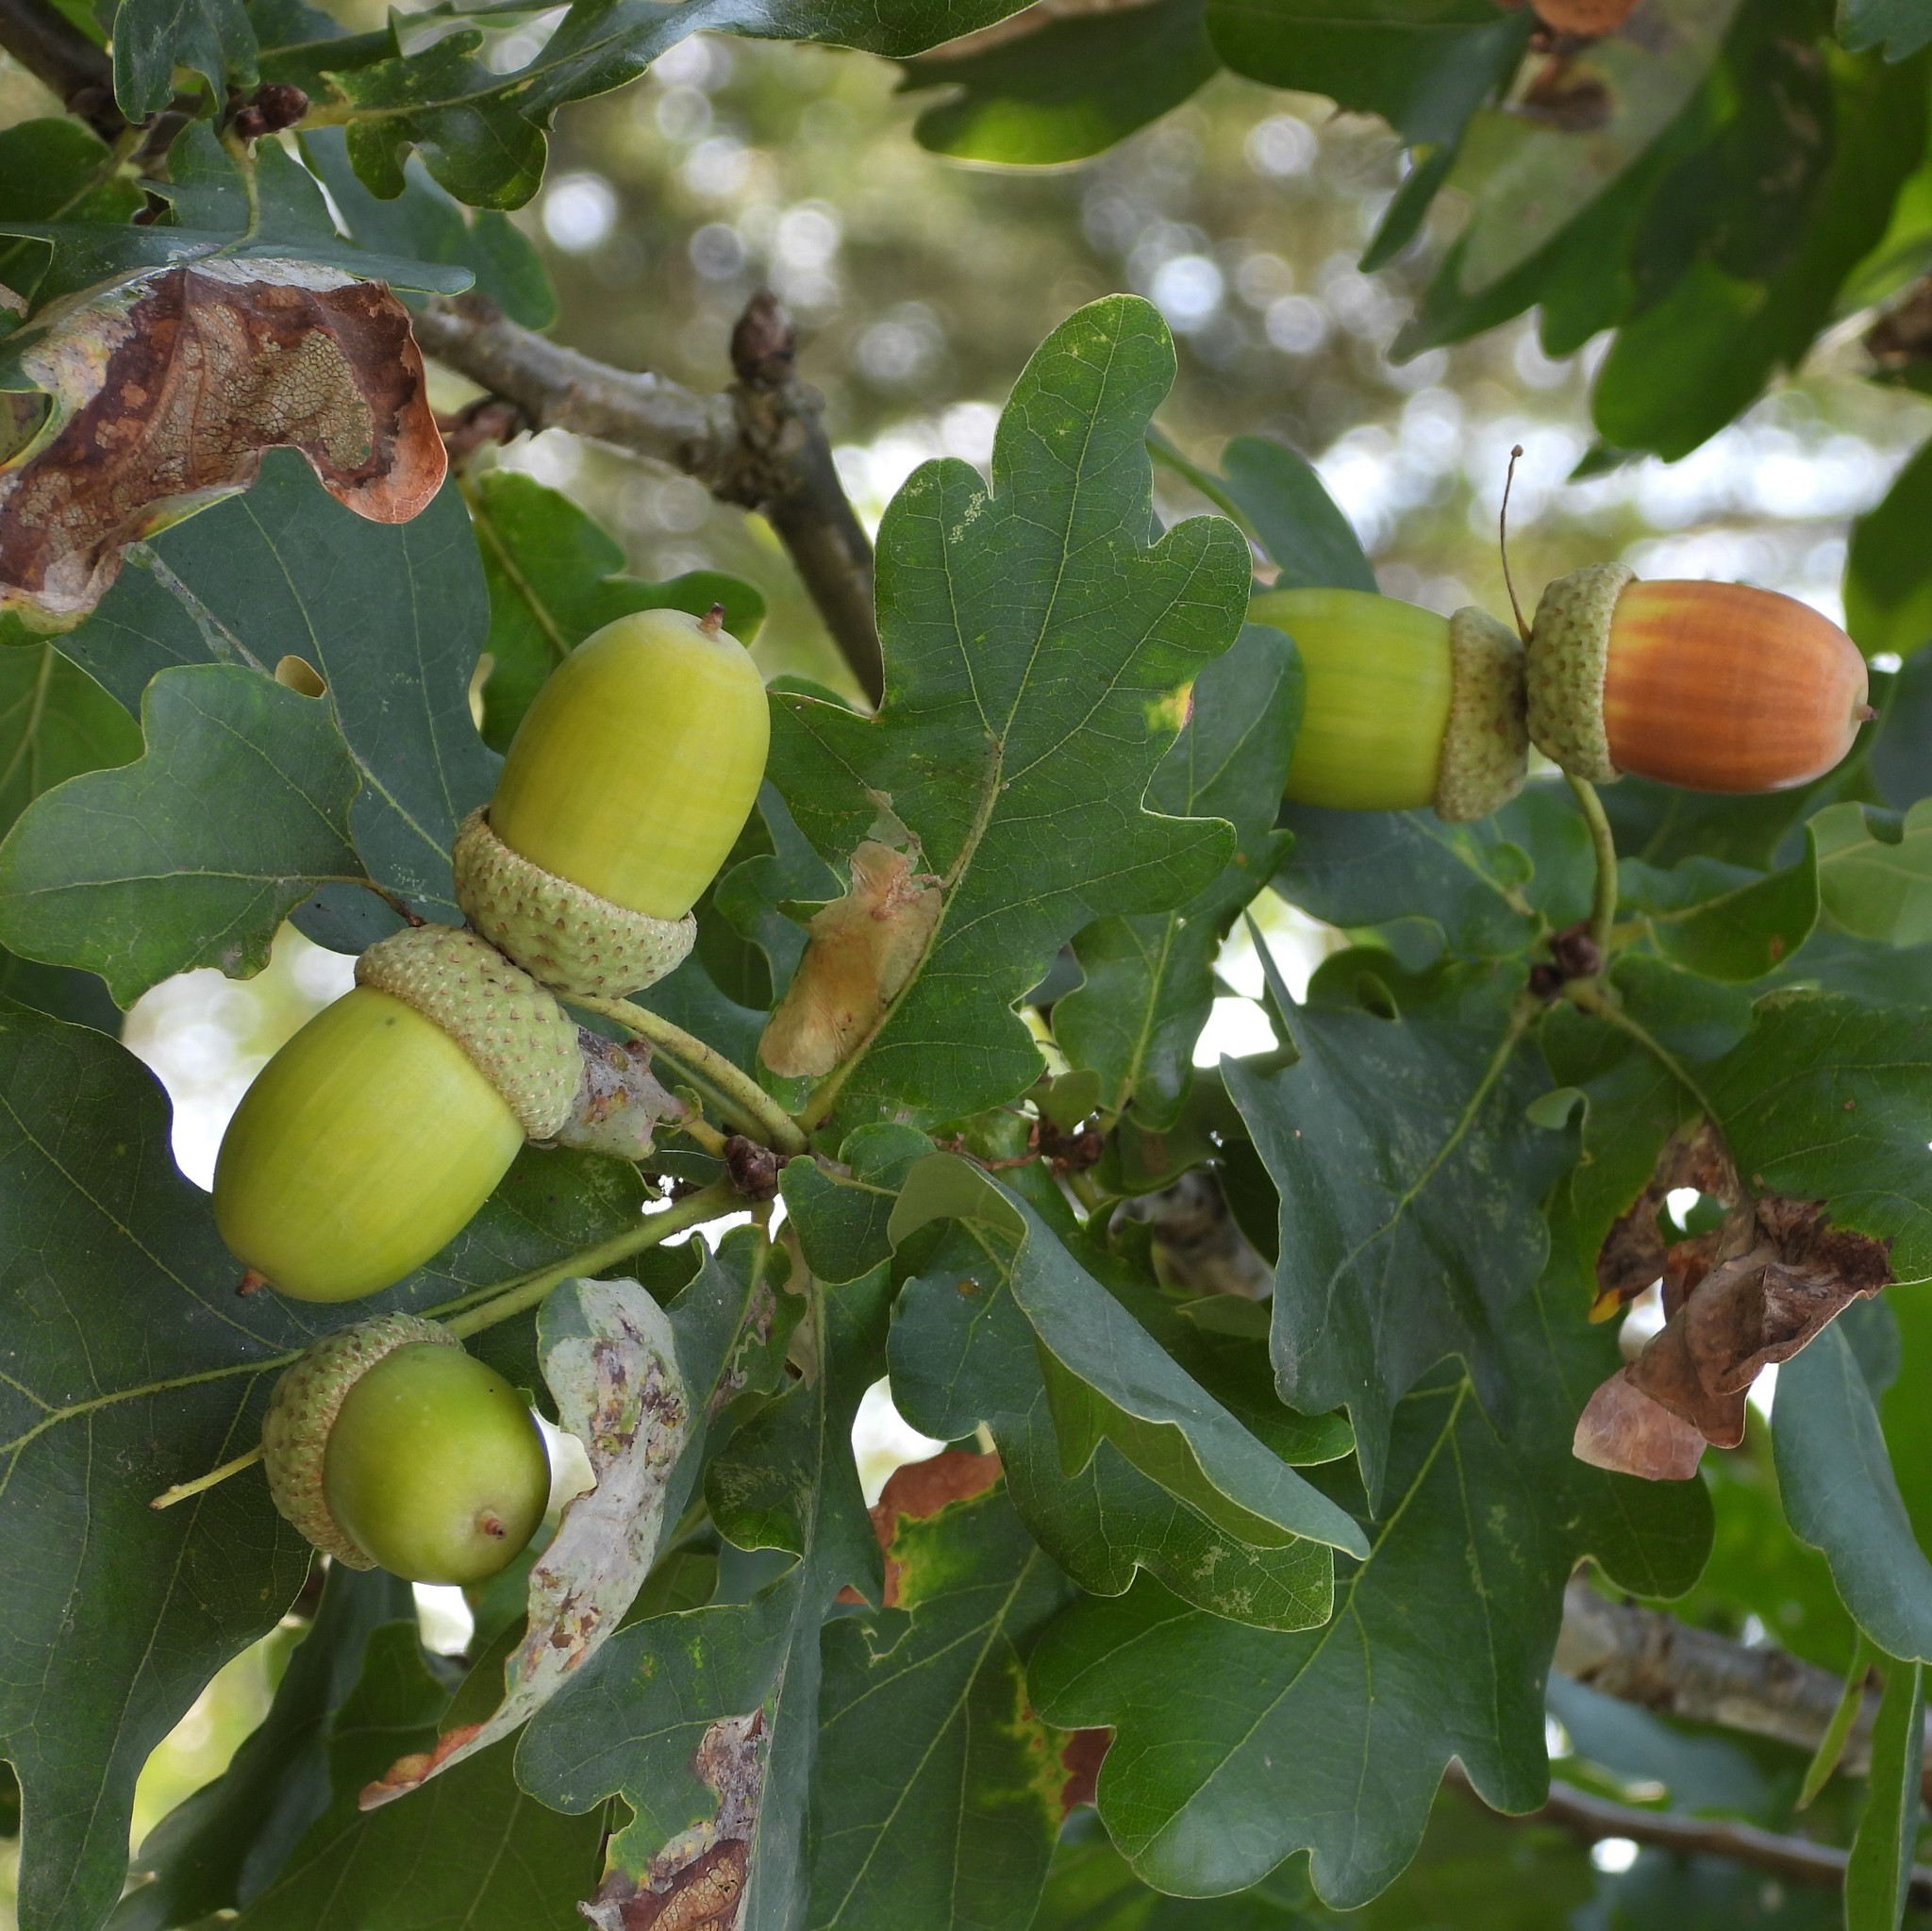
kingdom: Plantae
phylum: Tracheophyta
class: Magnoliopsida
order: Fagales
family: Fagaceae
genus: Quercus
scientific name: Quercus robur
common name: Pedunculate oak
